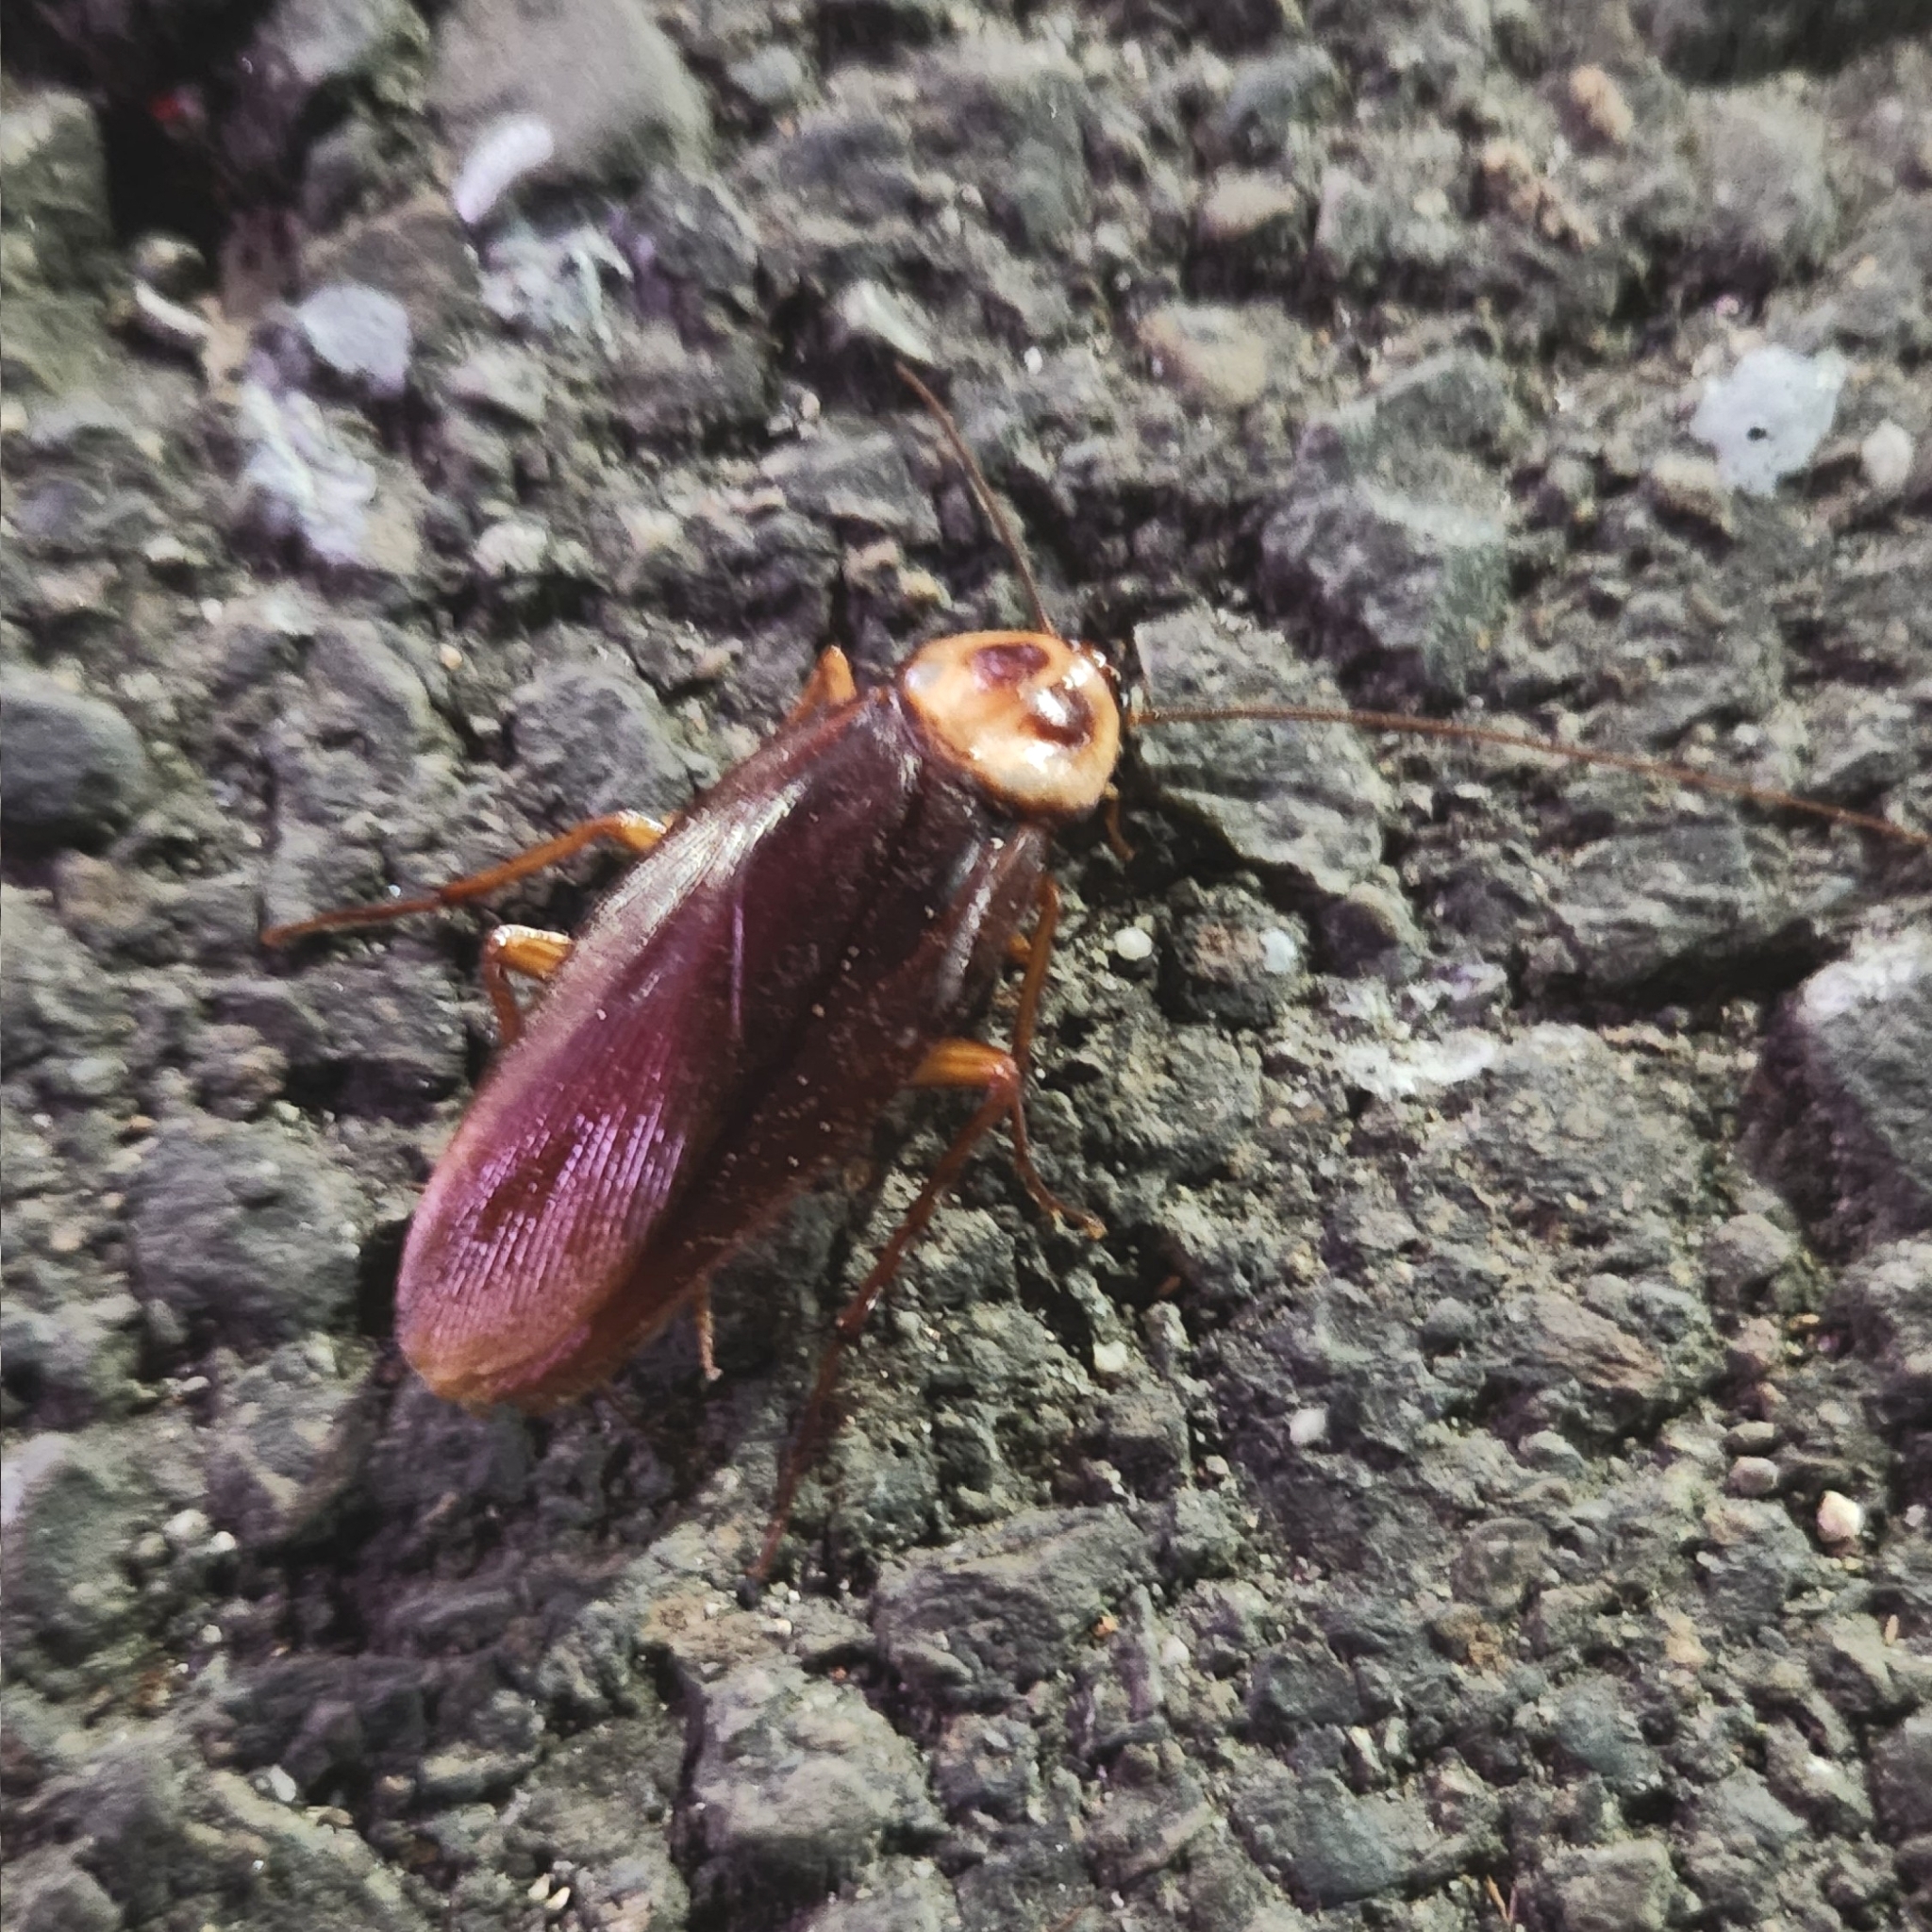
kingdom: Animalia
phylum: Arthropoda
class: Insecta
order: Blattodea
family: Blattidae
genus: Periplaneta
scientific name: Periplaneta americana
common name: American cockroach
